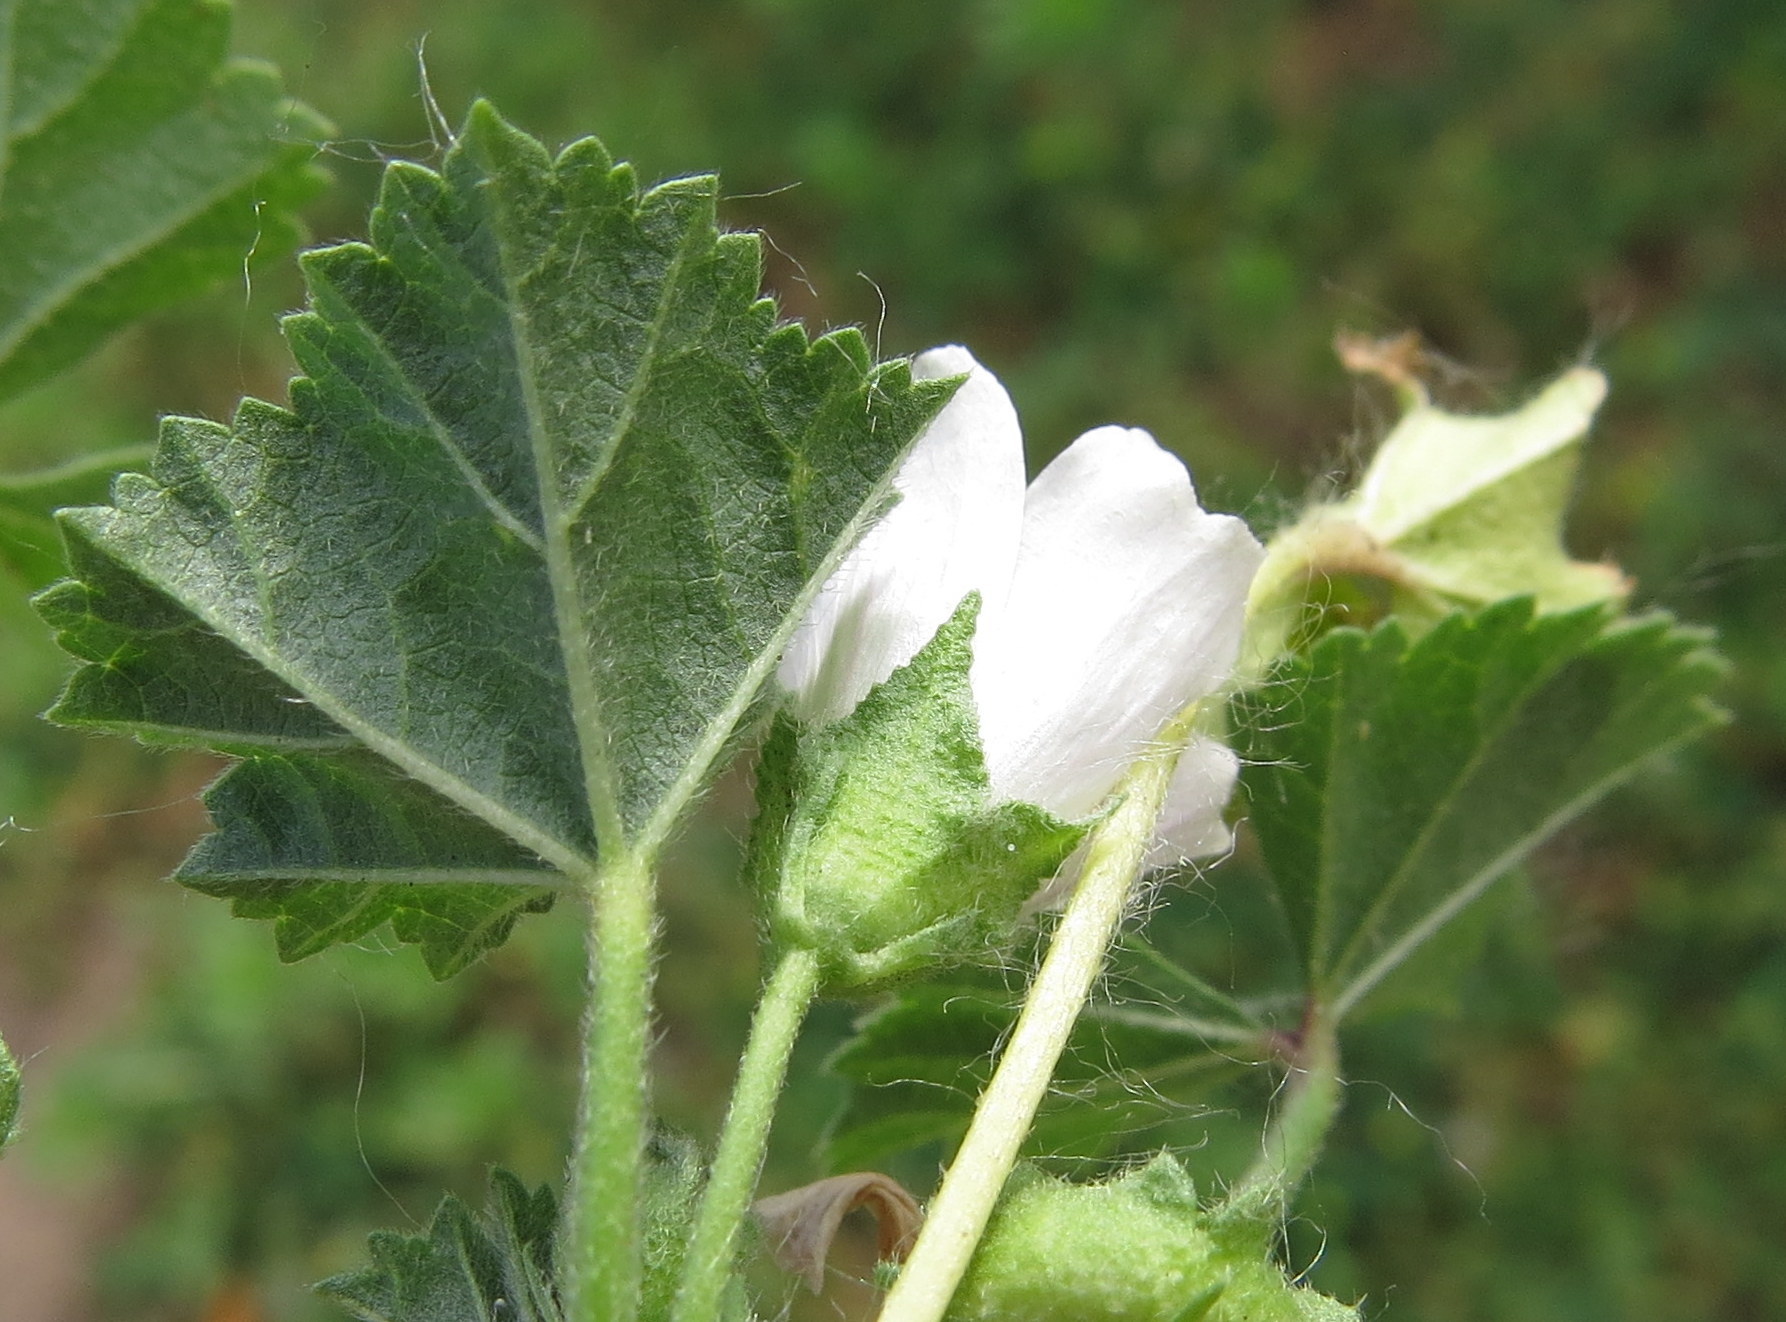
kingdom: Plantae
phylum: Tracheophyta
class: Magnoliopsida
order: Malvales
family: Malvaceae
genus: Malva
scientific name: Malva neglecta
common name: Common mallow
